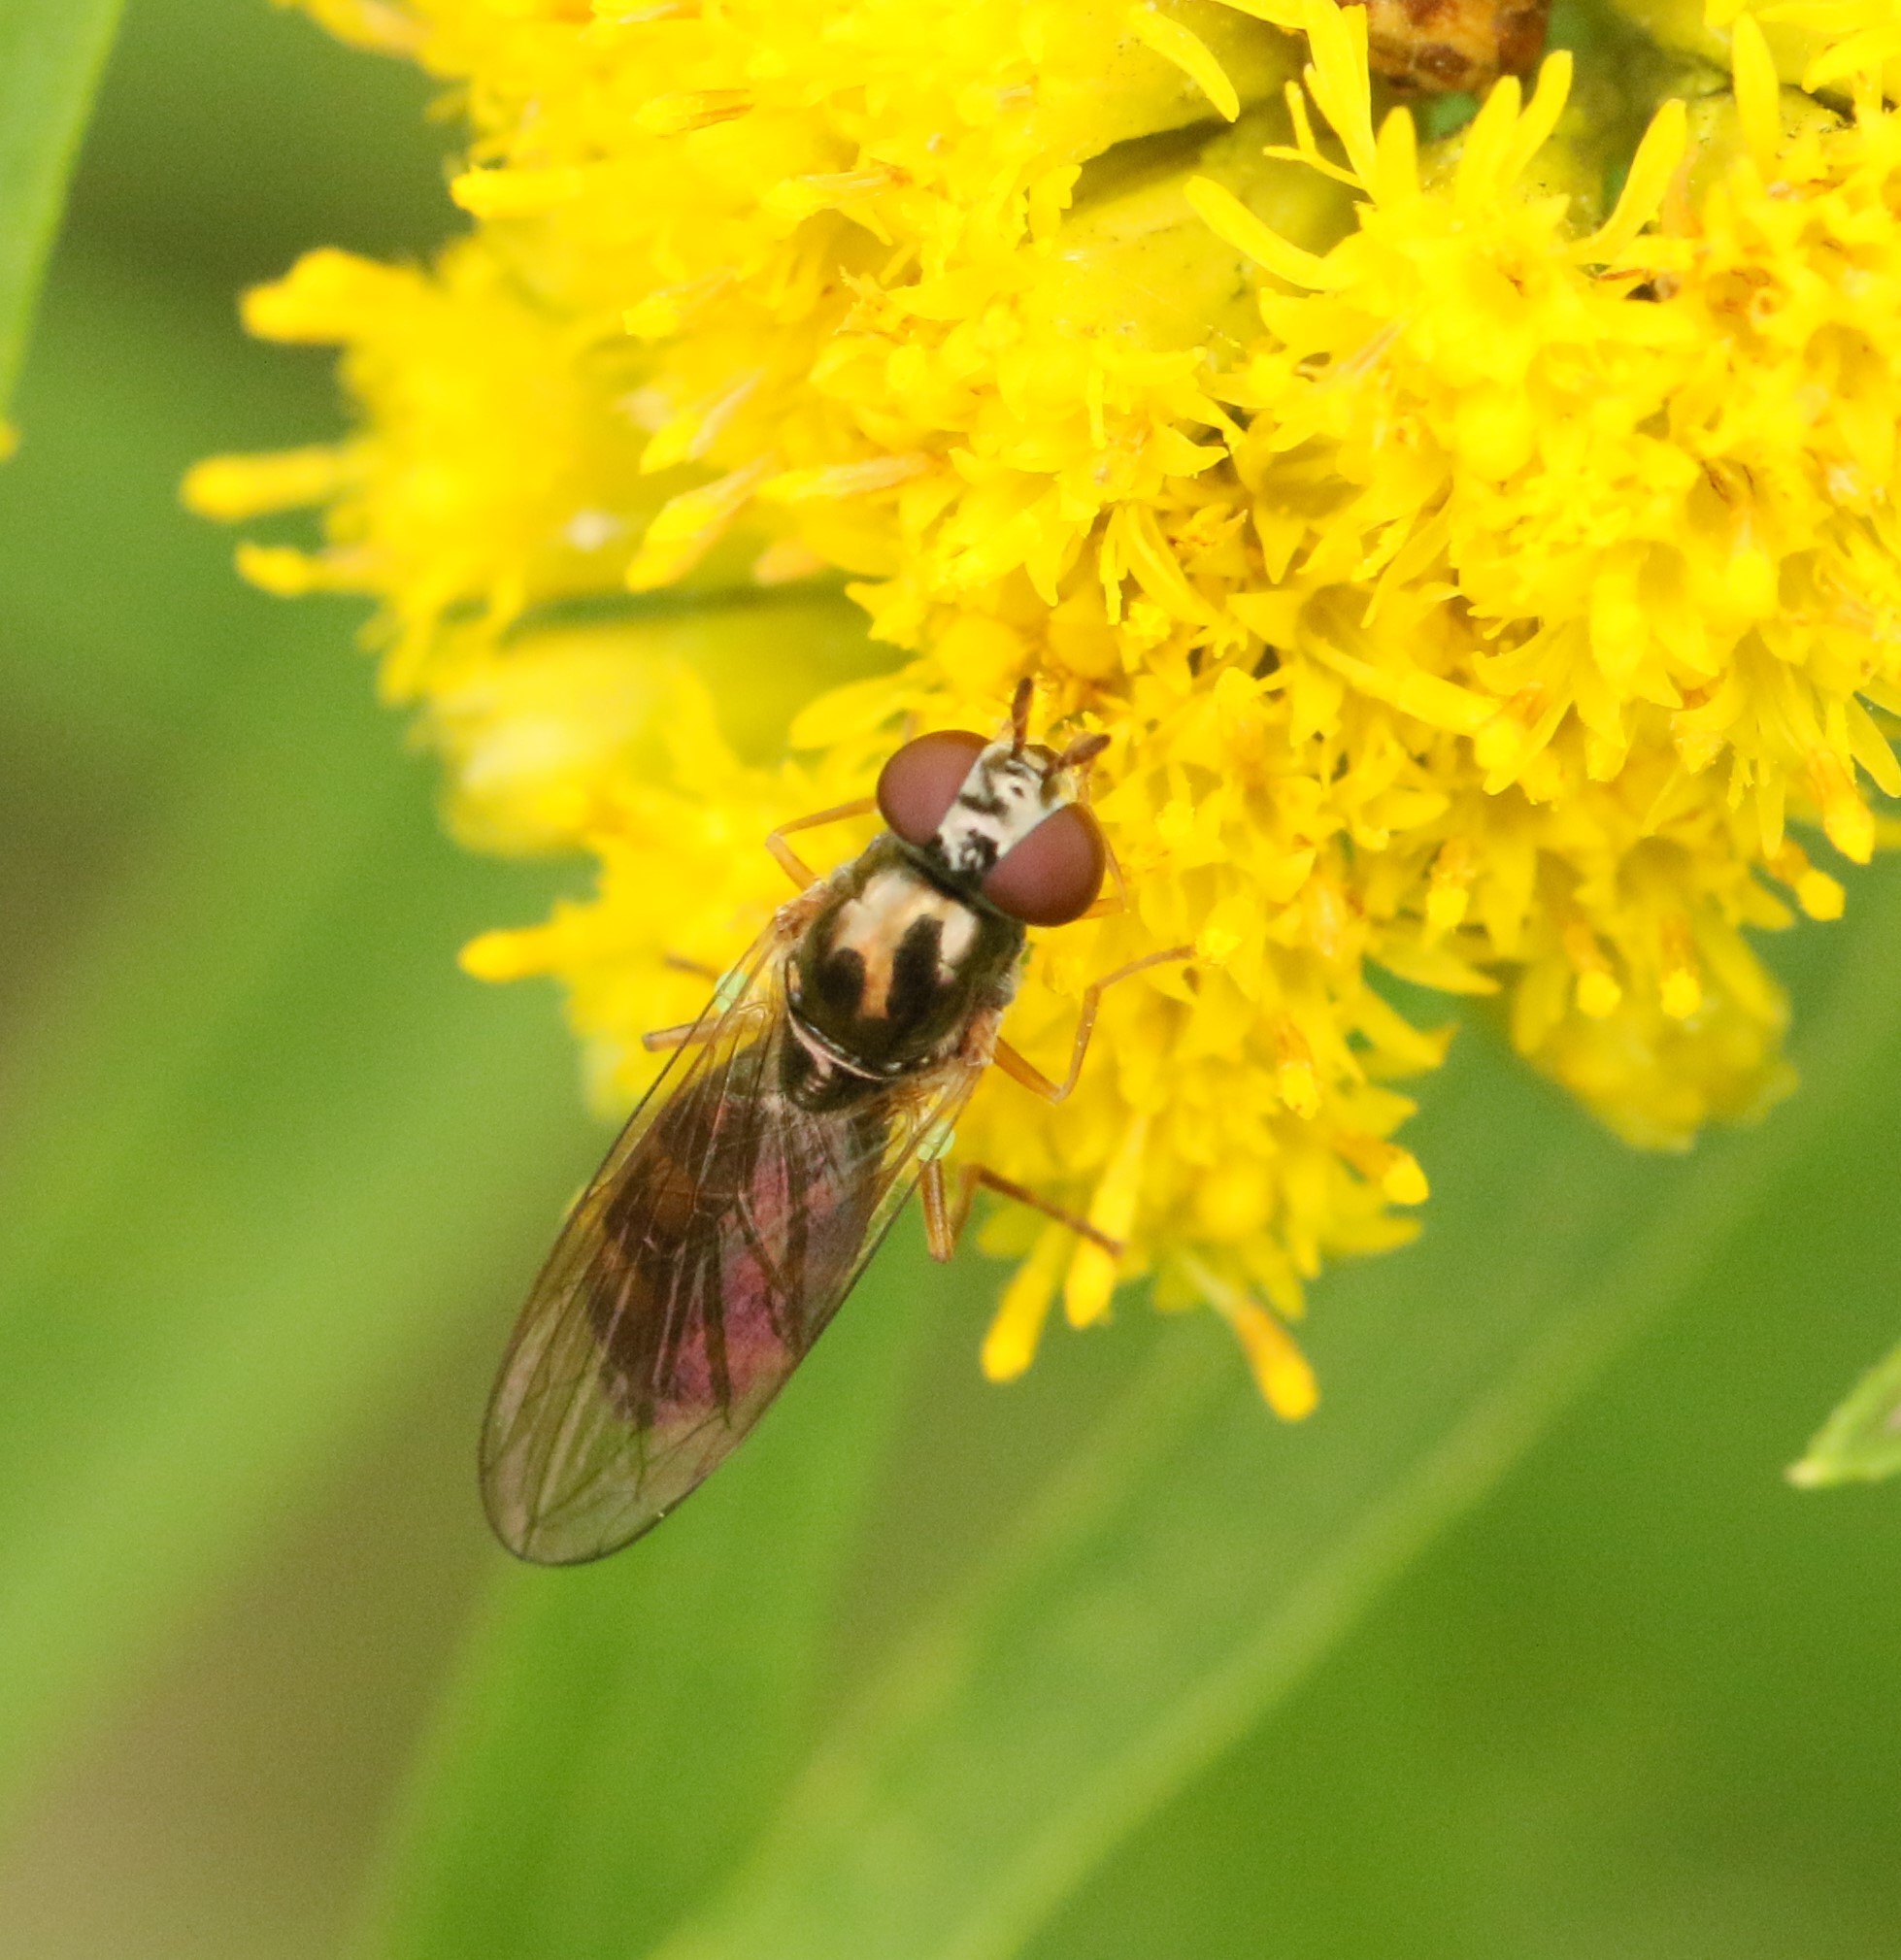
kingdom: Animalia
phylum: Arthropoda
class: Insecta
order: Diptera
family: Syrphidae
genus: Melanostoma
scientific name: Melanostoma mellina
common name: Hover fly
